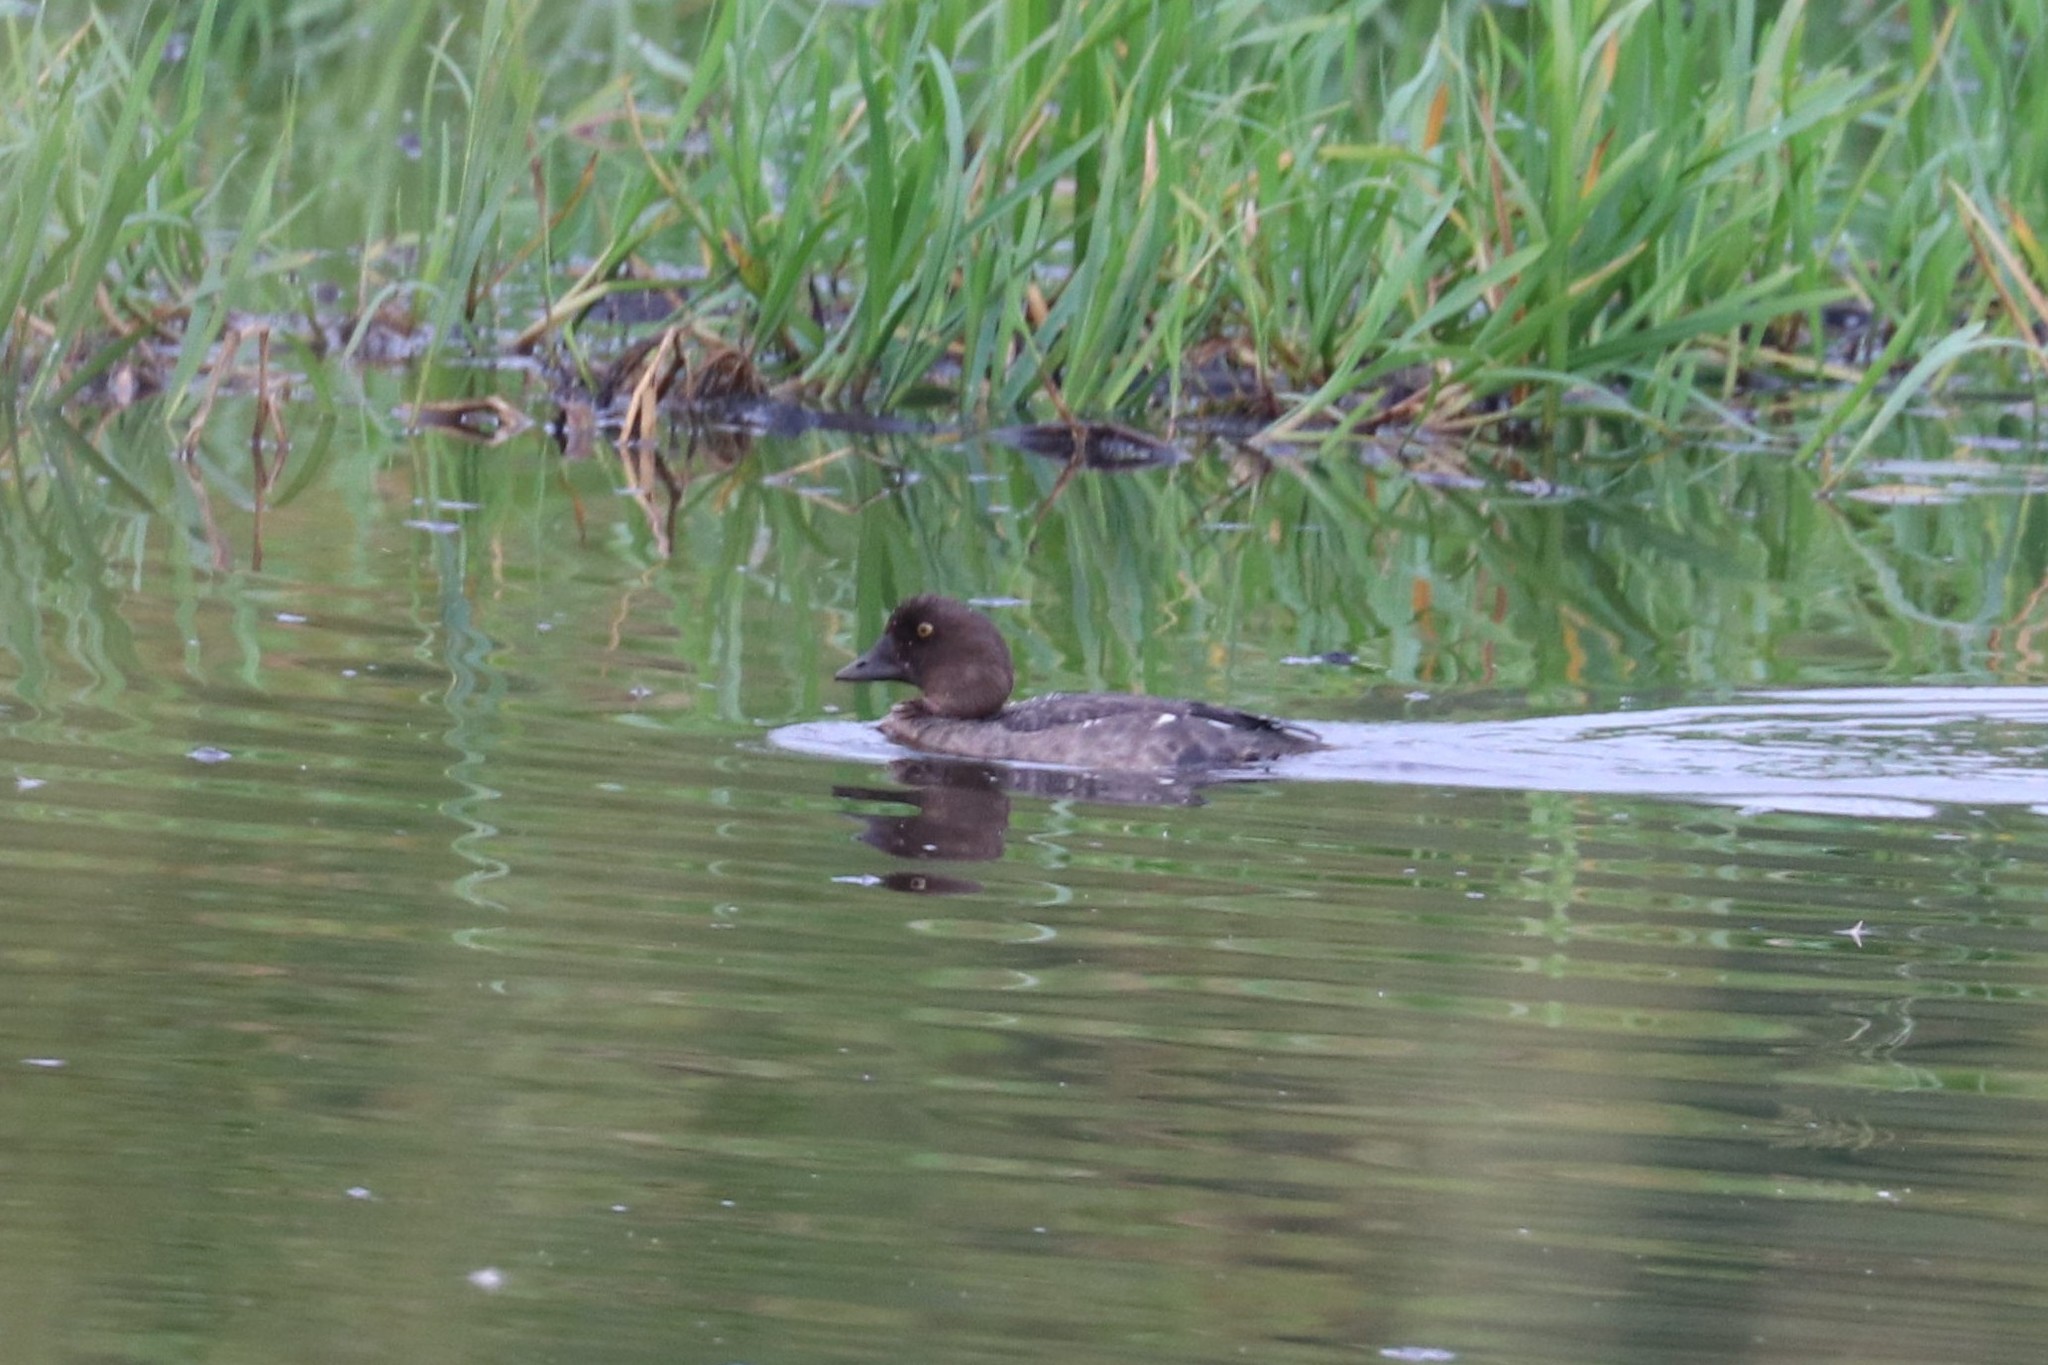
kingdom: Animalia
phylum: Chordata
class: Aves
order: Anseriformes
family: Anatidae
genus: Bucephala
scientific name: Bucephala clangula
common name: Common goldeneye
